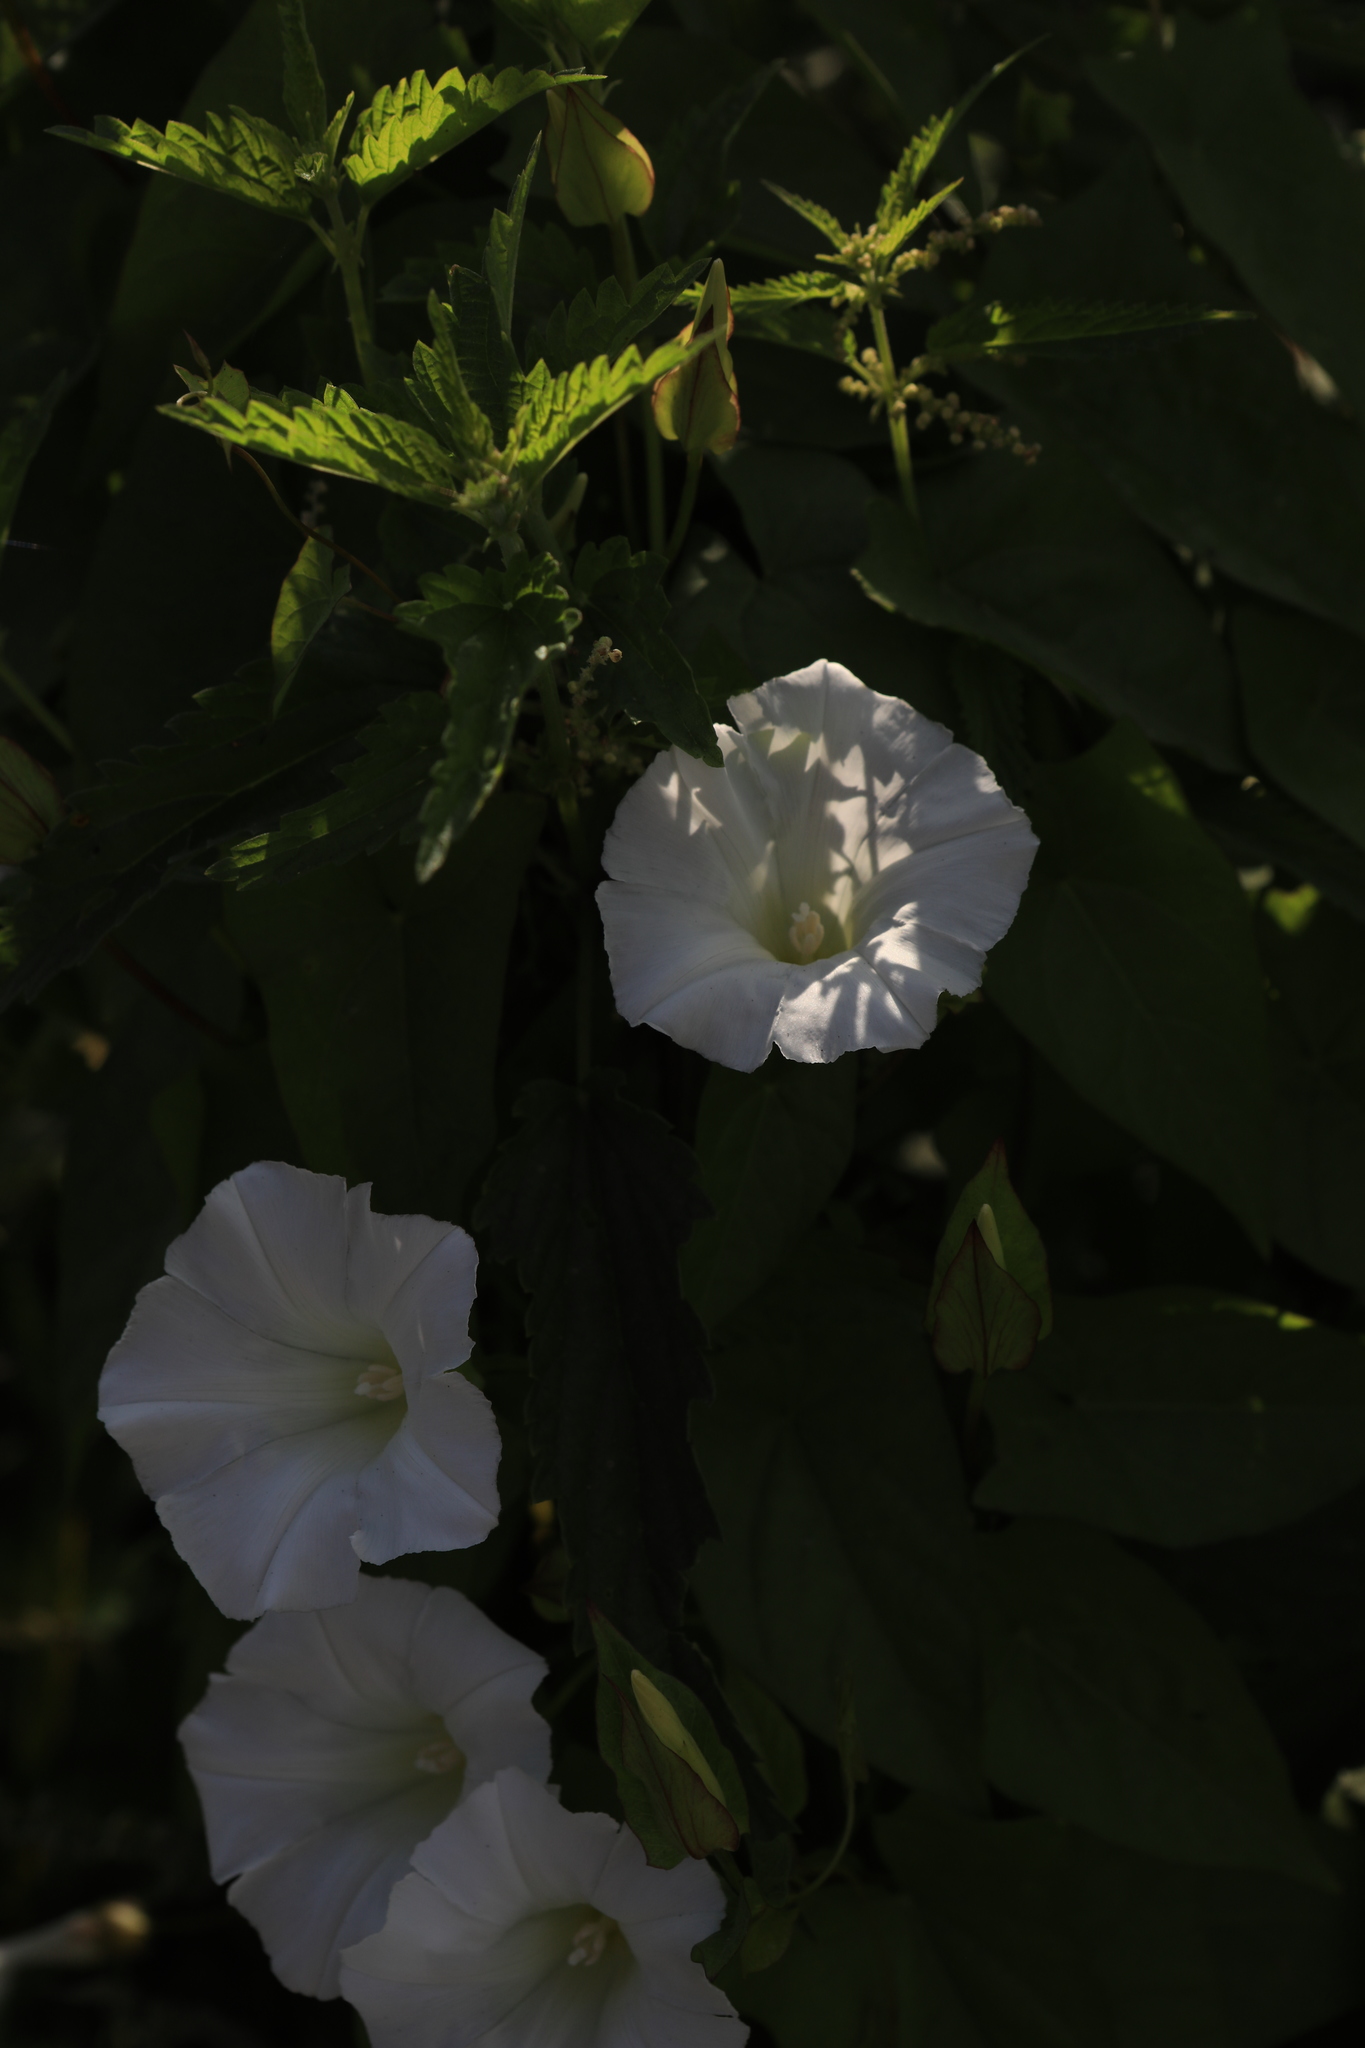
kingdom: Plantae
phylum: Tracheophyta
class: Magnoliopsida
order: Solanales
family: Convolvulaceae
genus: Calystegia
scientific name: Calystegia sepium
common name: Hedge bindweed
